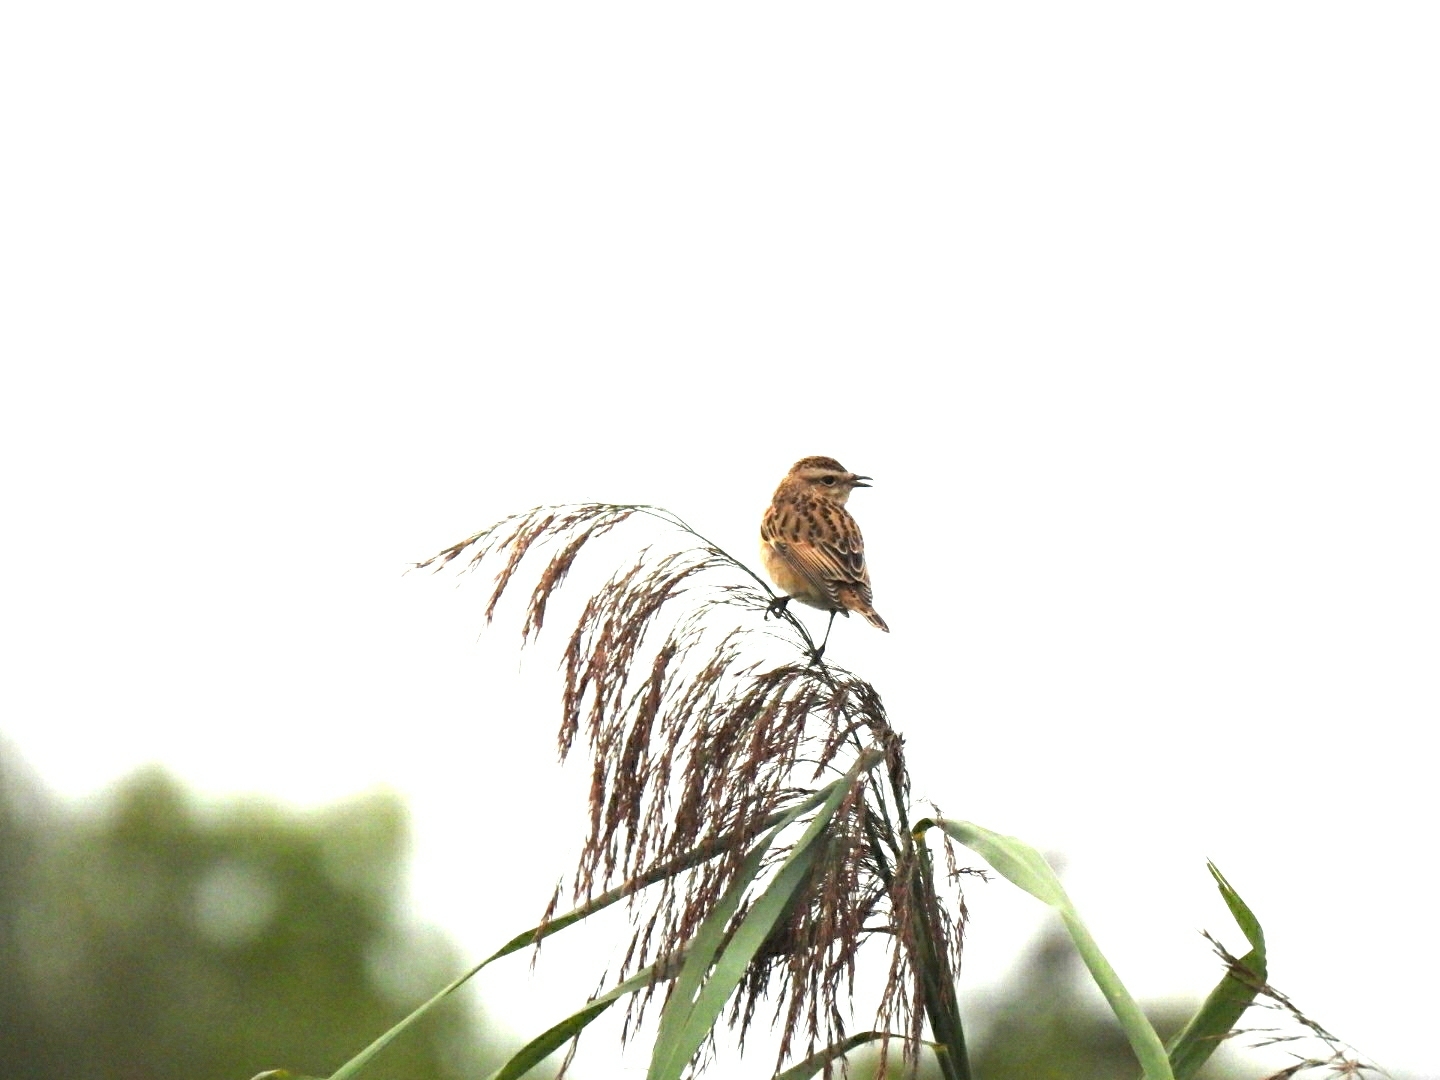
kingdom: Animalia
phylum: Chordata
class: Aves
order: Passeriformes
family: Muscicapidae
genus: Saxicola
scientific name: Saxicola rubetra
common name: Whinchat
